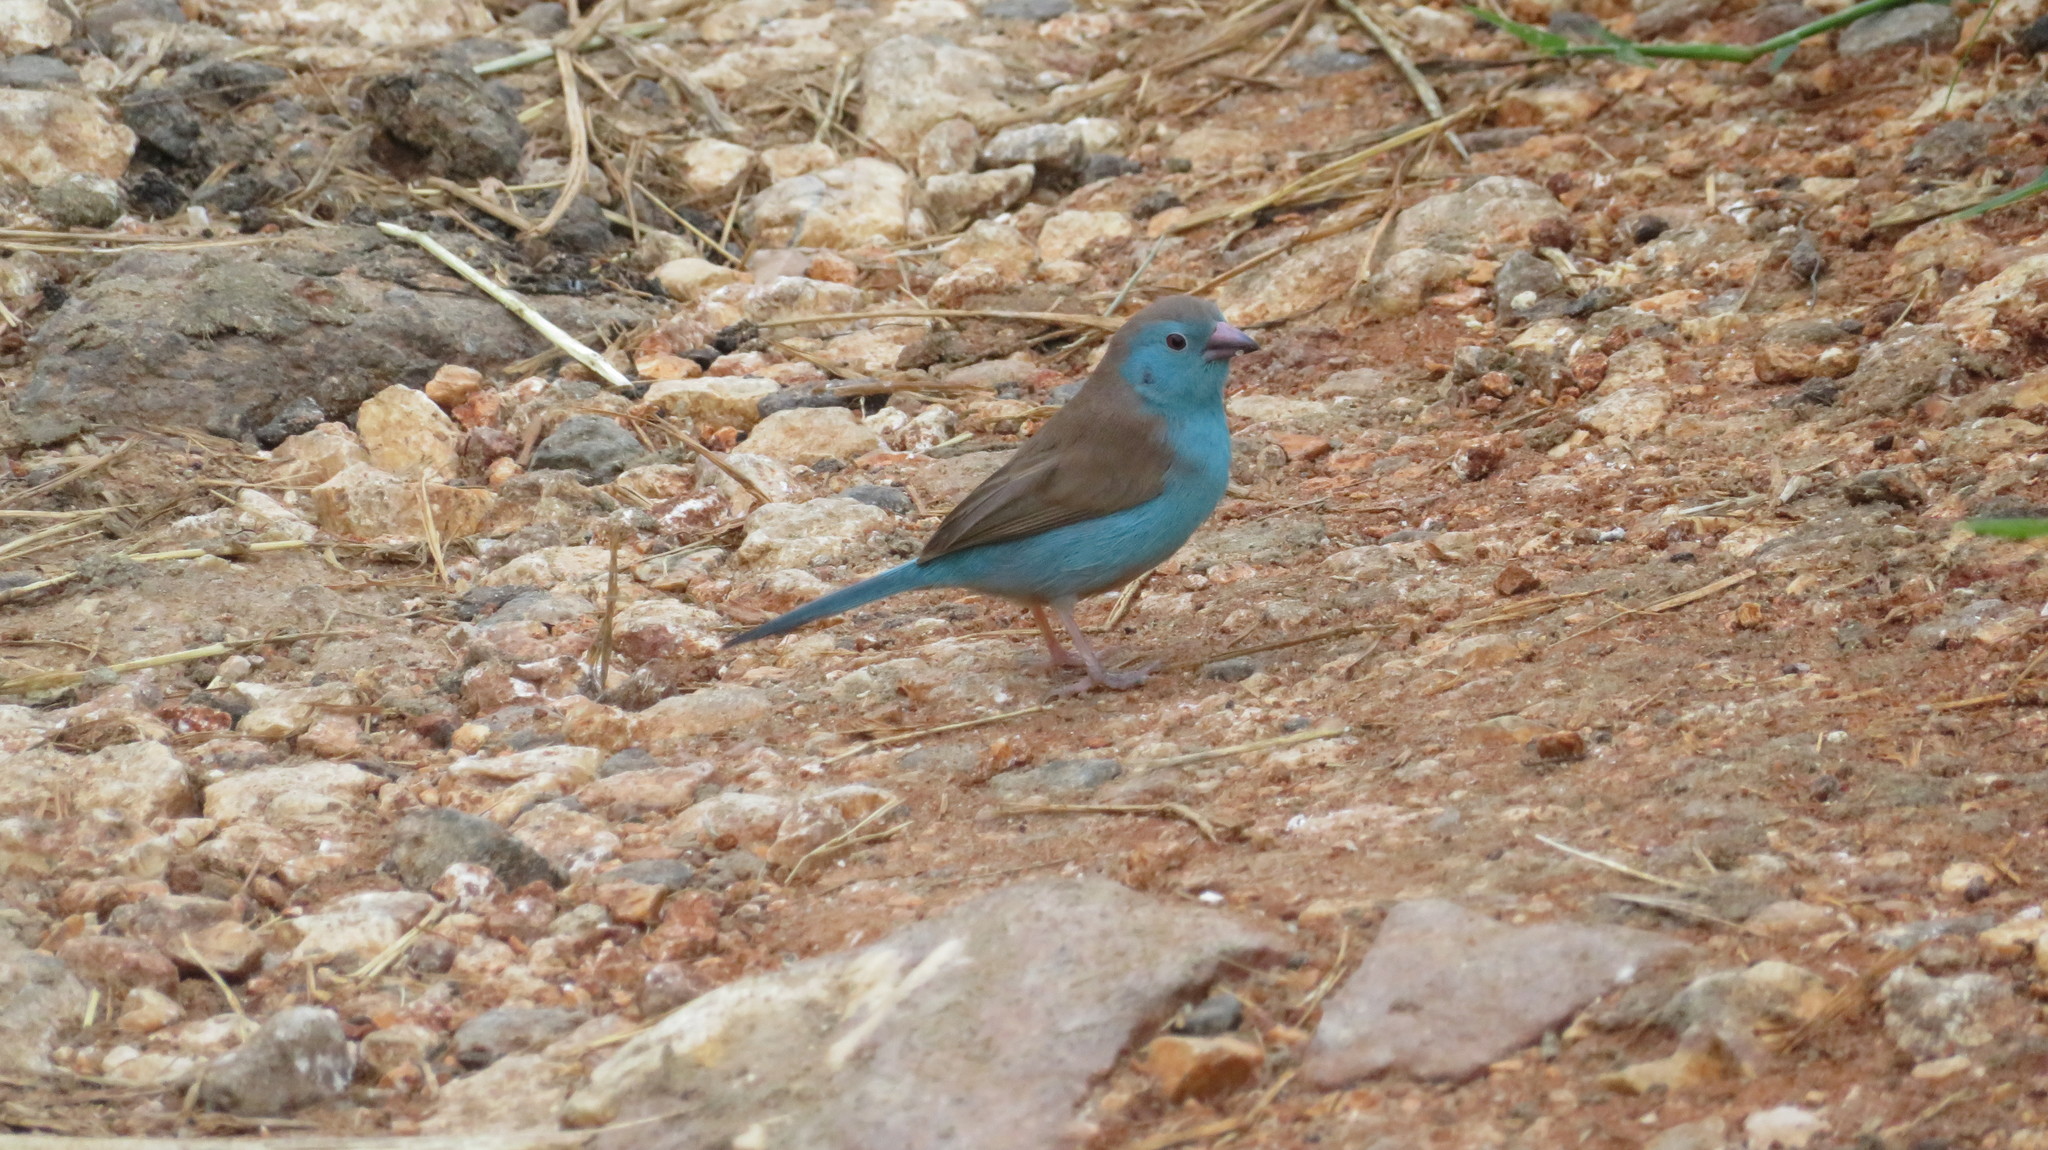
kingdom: Animalia
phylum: Chordata
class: Aves
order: Passeriformes
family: Estrildidae
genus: Uraeginthus
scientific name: Uraeginthus angolensis
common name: Blue waxbill
